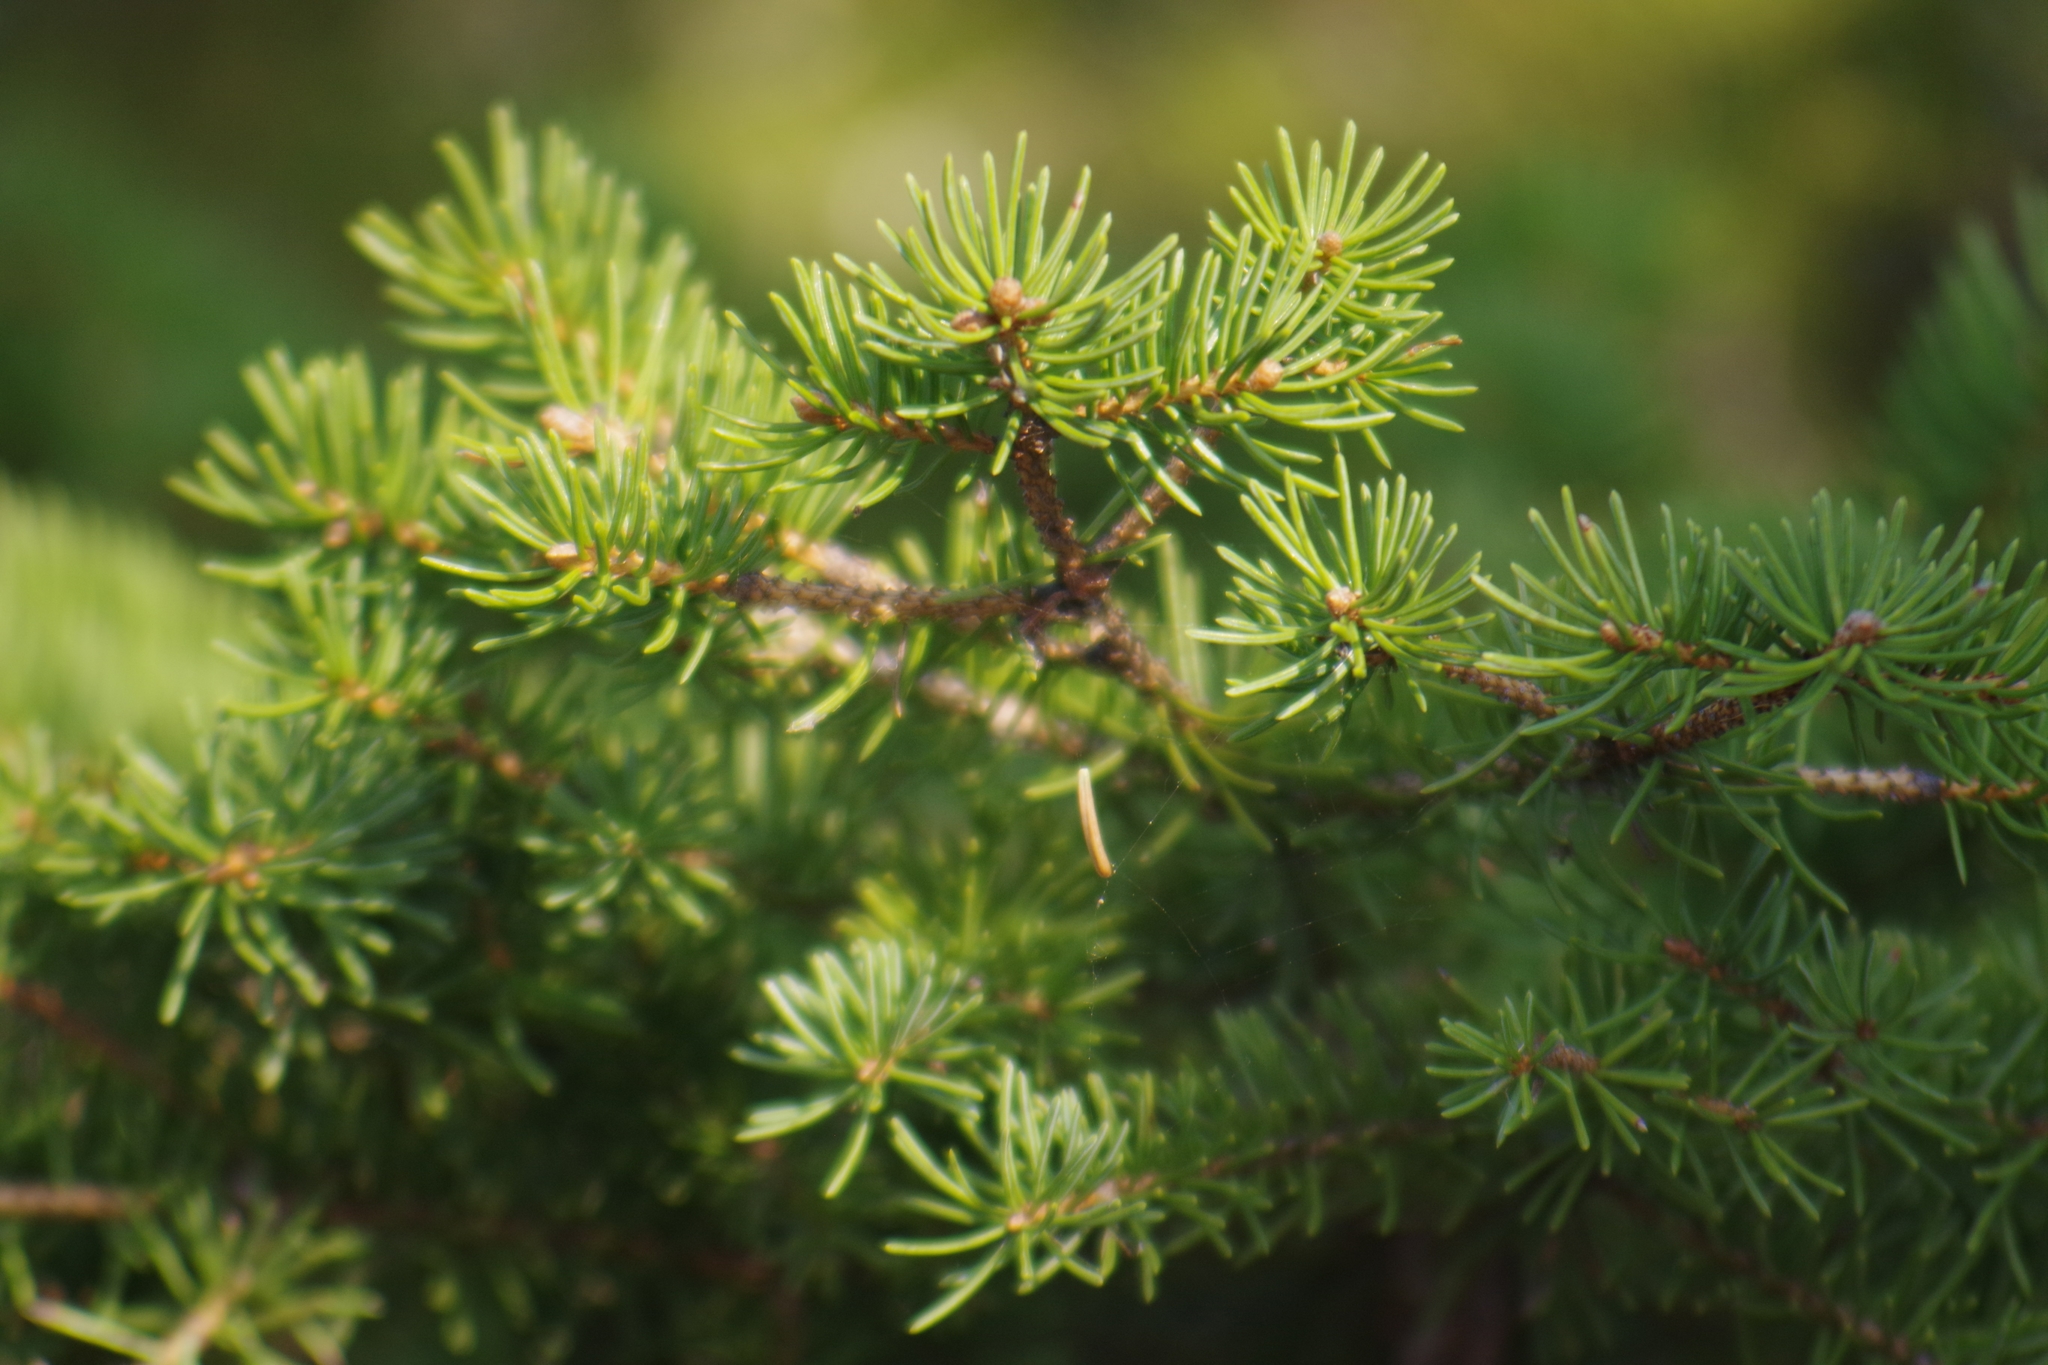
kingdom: Plantae
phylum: Tracheophyta
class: Pinopsida
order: Pinales
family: Pinaceae
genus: Picea
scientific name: Picea glauca
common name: White spruce
